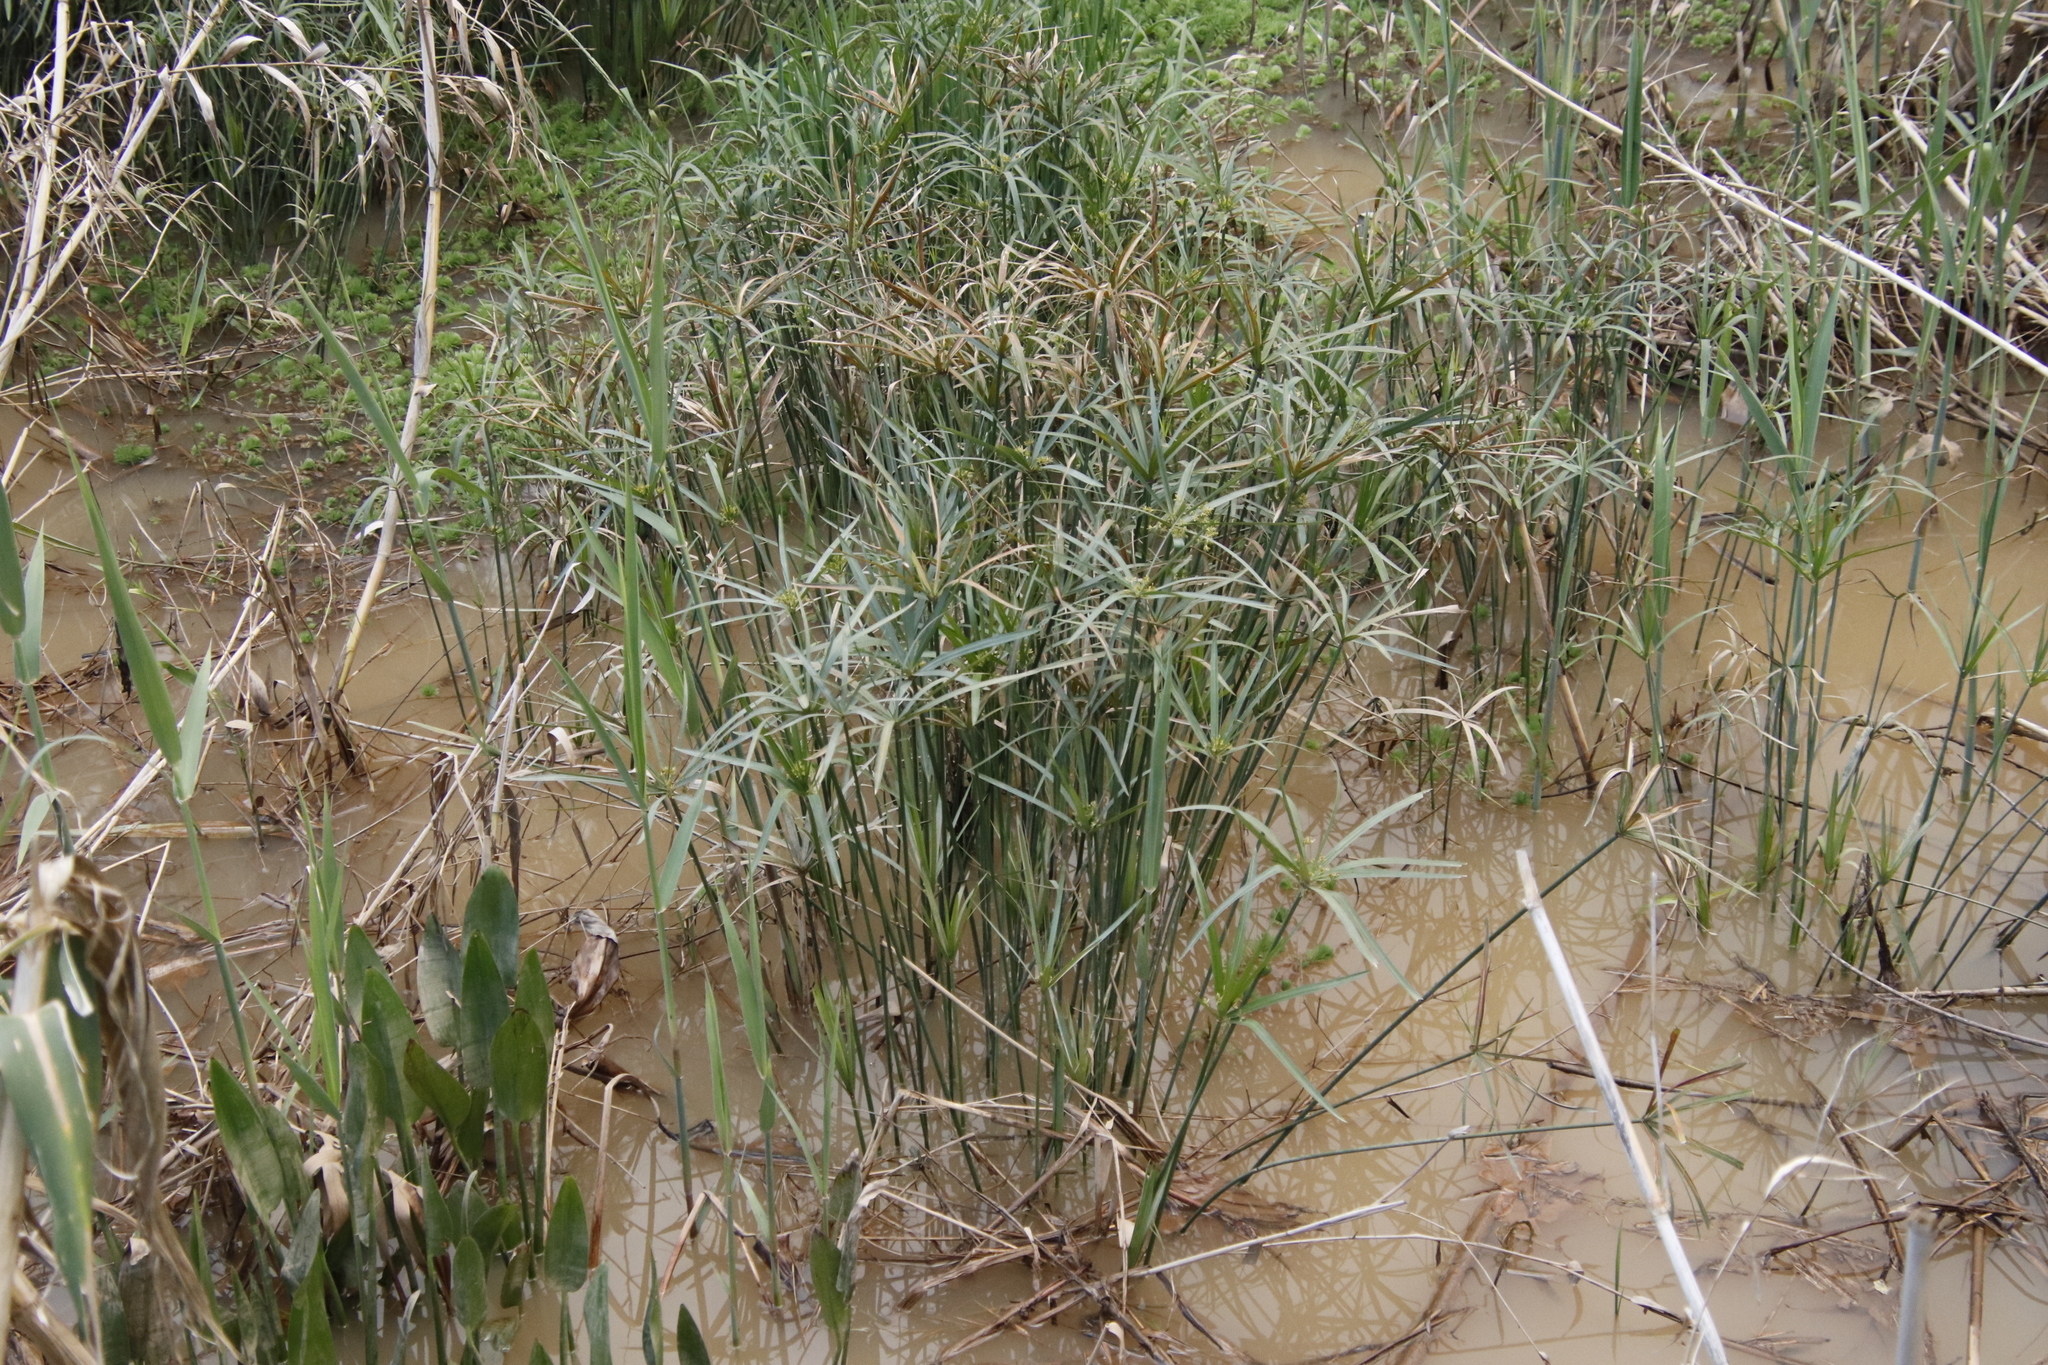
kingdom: Plantae
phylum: Tracheophyta
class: Liliopsida
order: Poales
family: Cyperaceae
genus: Cyperus
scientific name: Cyperus textilis
